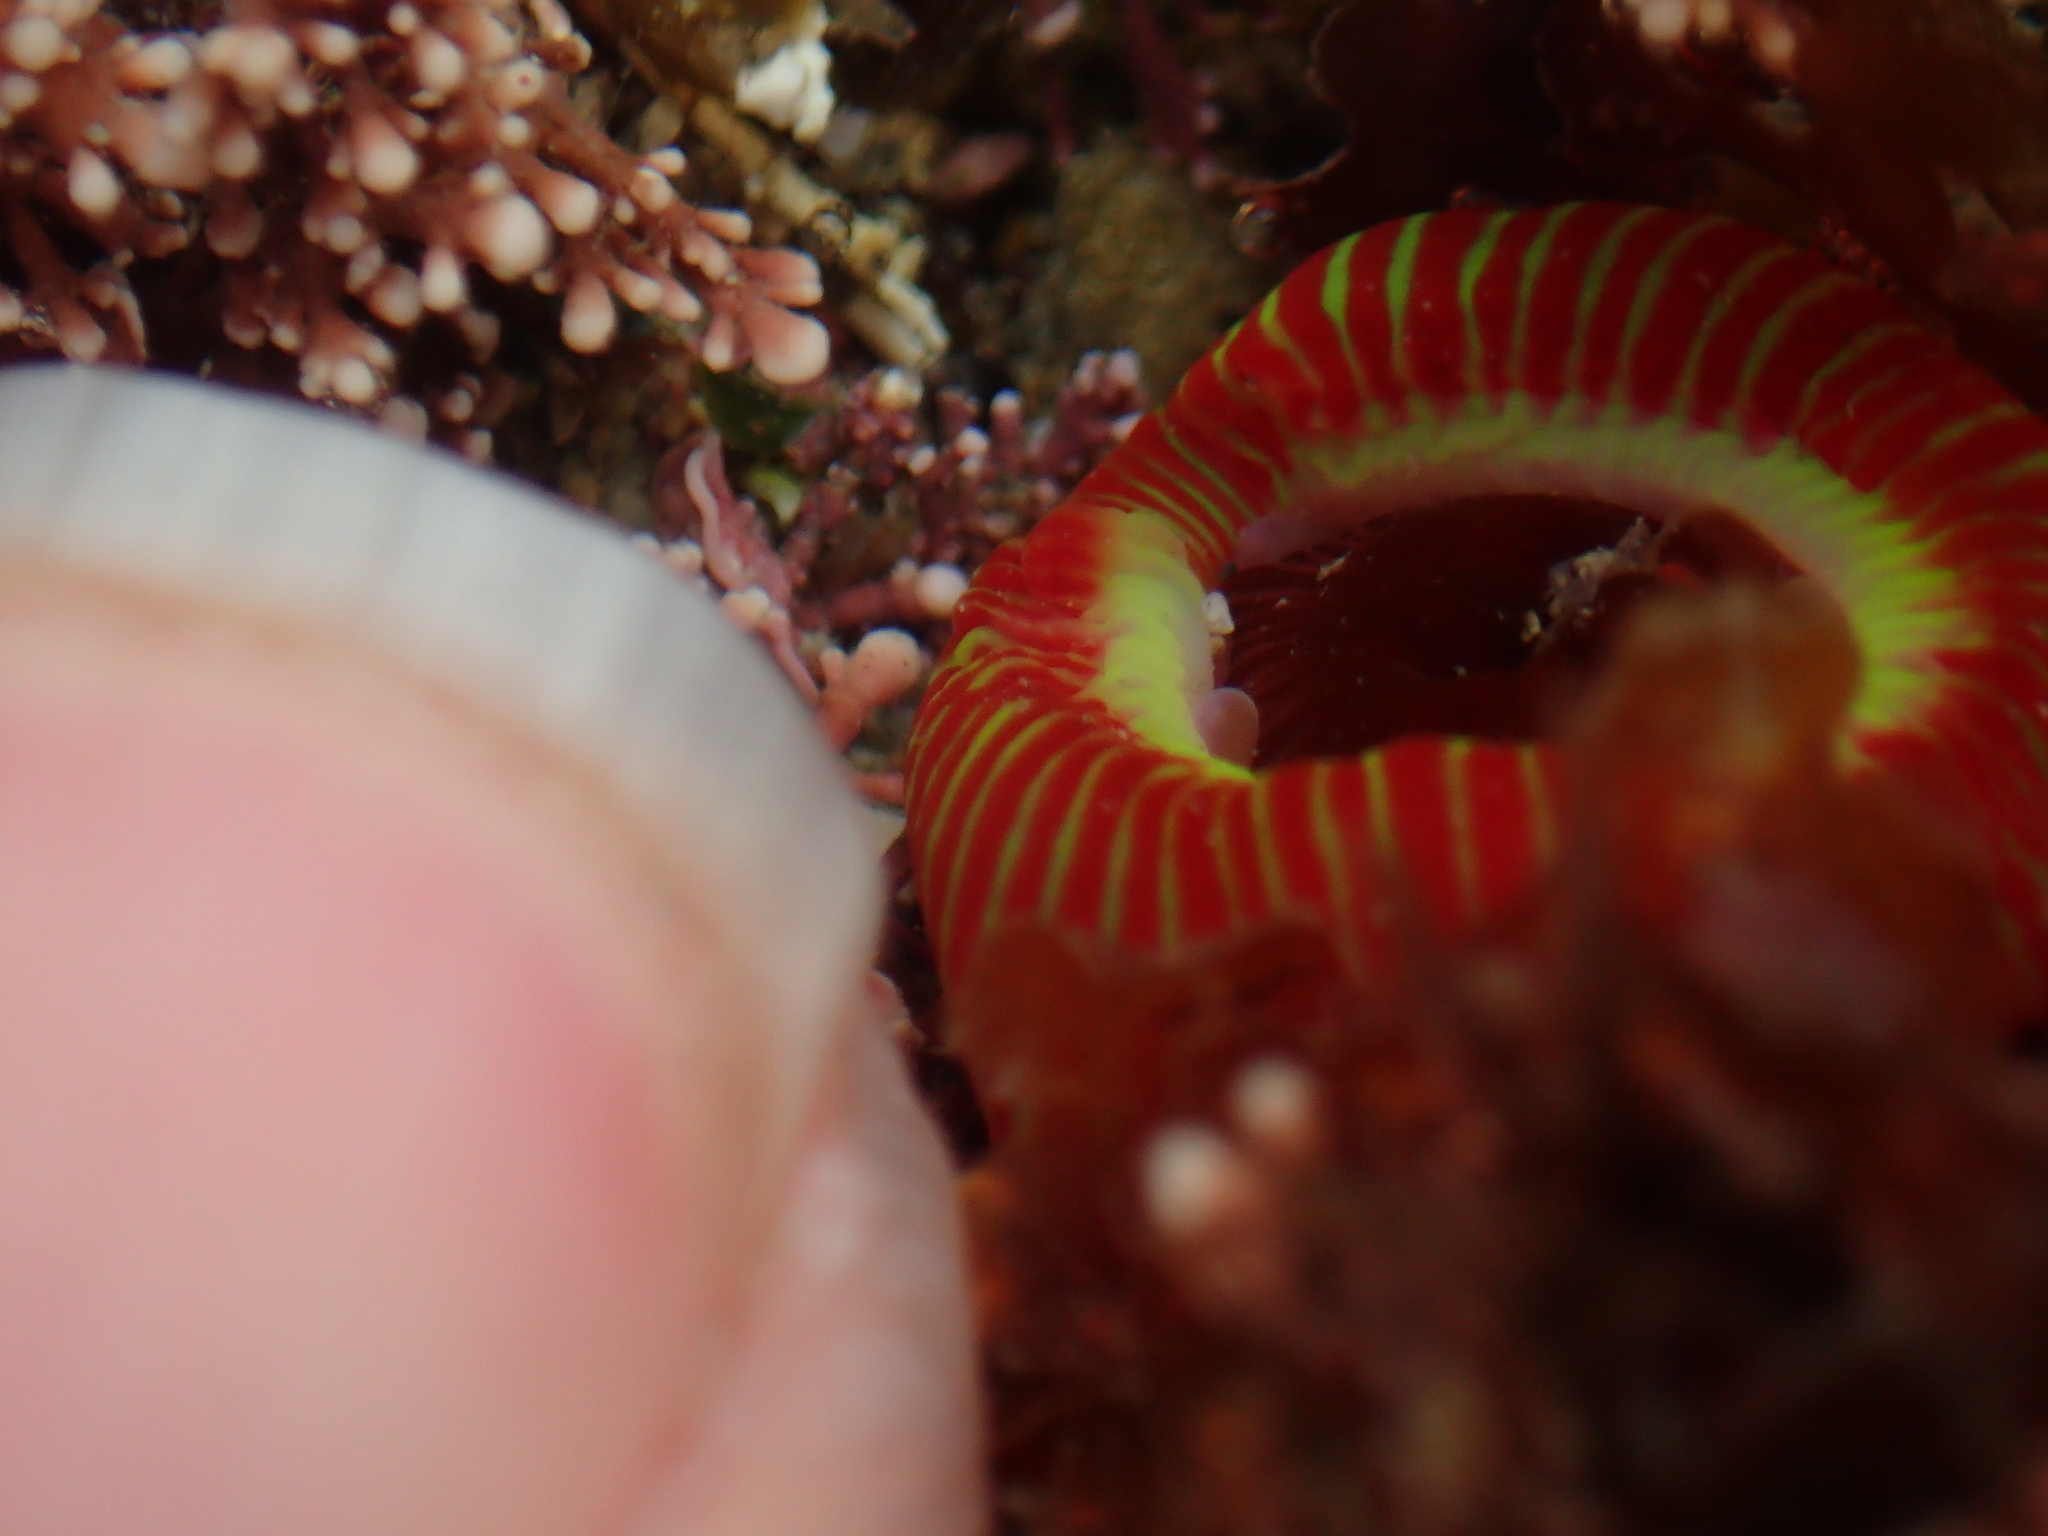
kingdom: Animalia
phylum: Cnidaria
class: Anthozoa
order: Actiniaria
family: Actiniidae
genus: Epiactis
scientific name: Epiactis thompsoni
